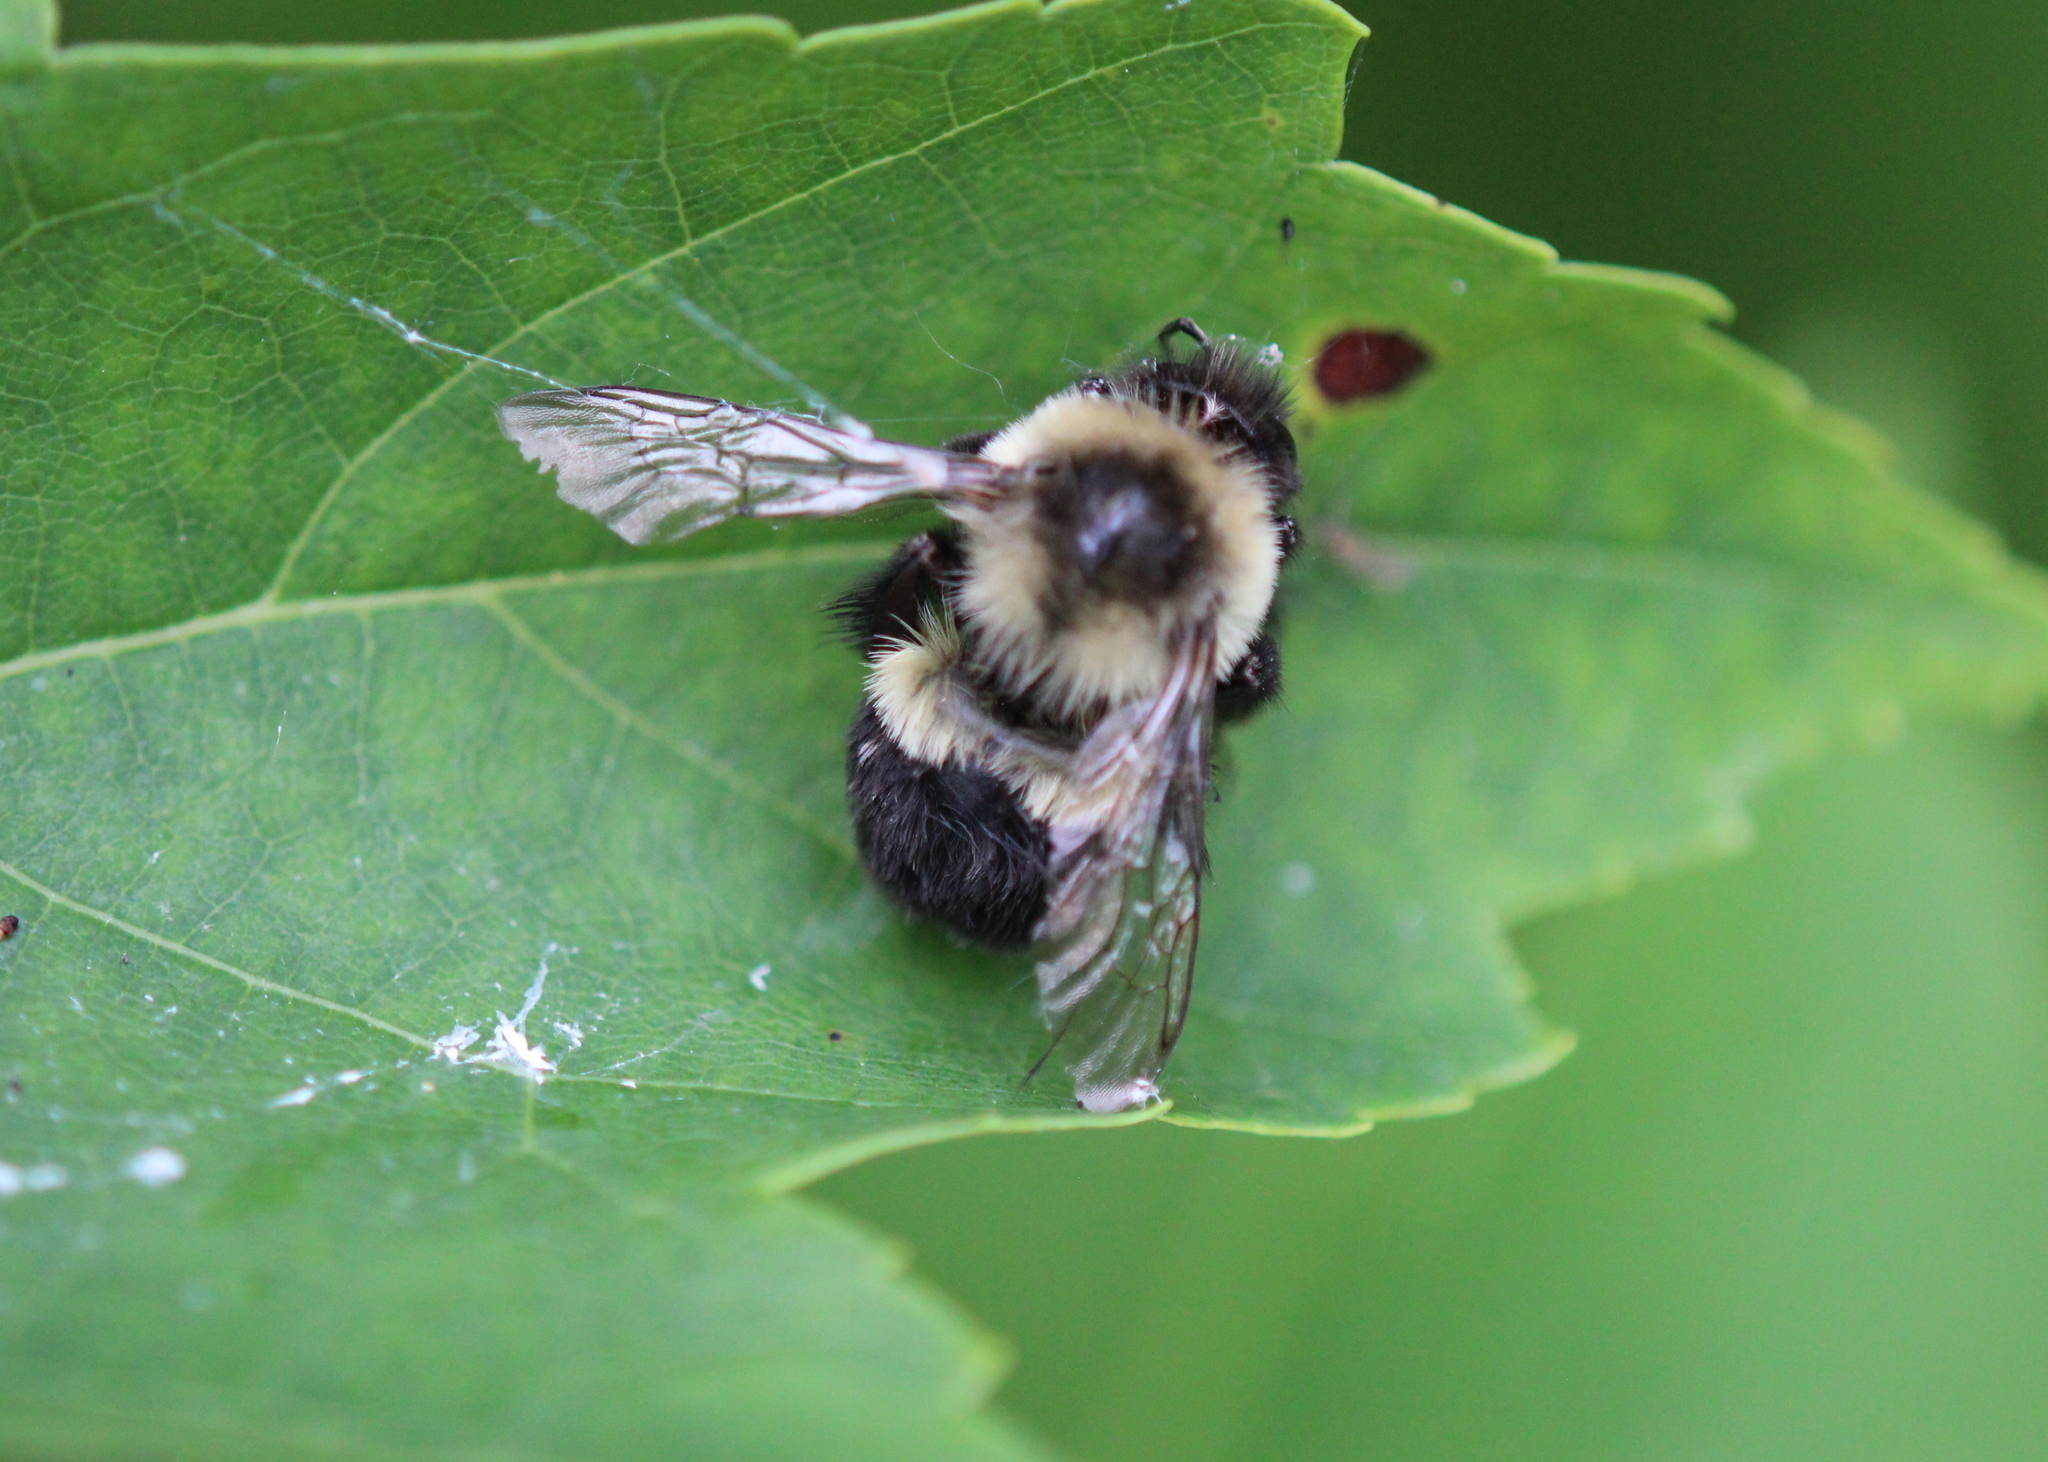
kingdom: Animalia
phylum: Arthropoda
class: Insecta
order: Hymenoptera
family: Apidae
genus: Bombus
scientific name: Bombus impatiens
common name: Common eastern bumble bee
